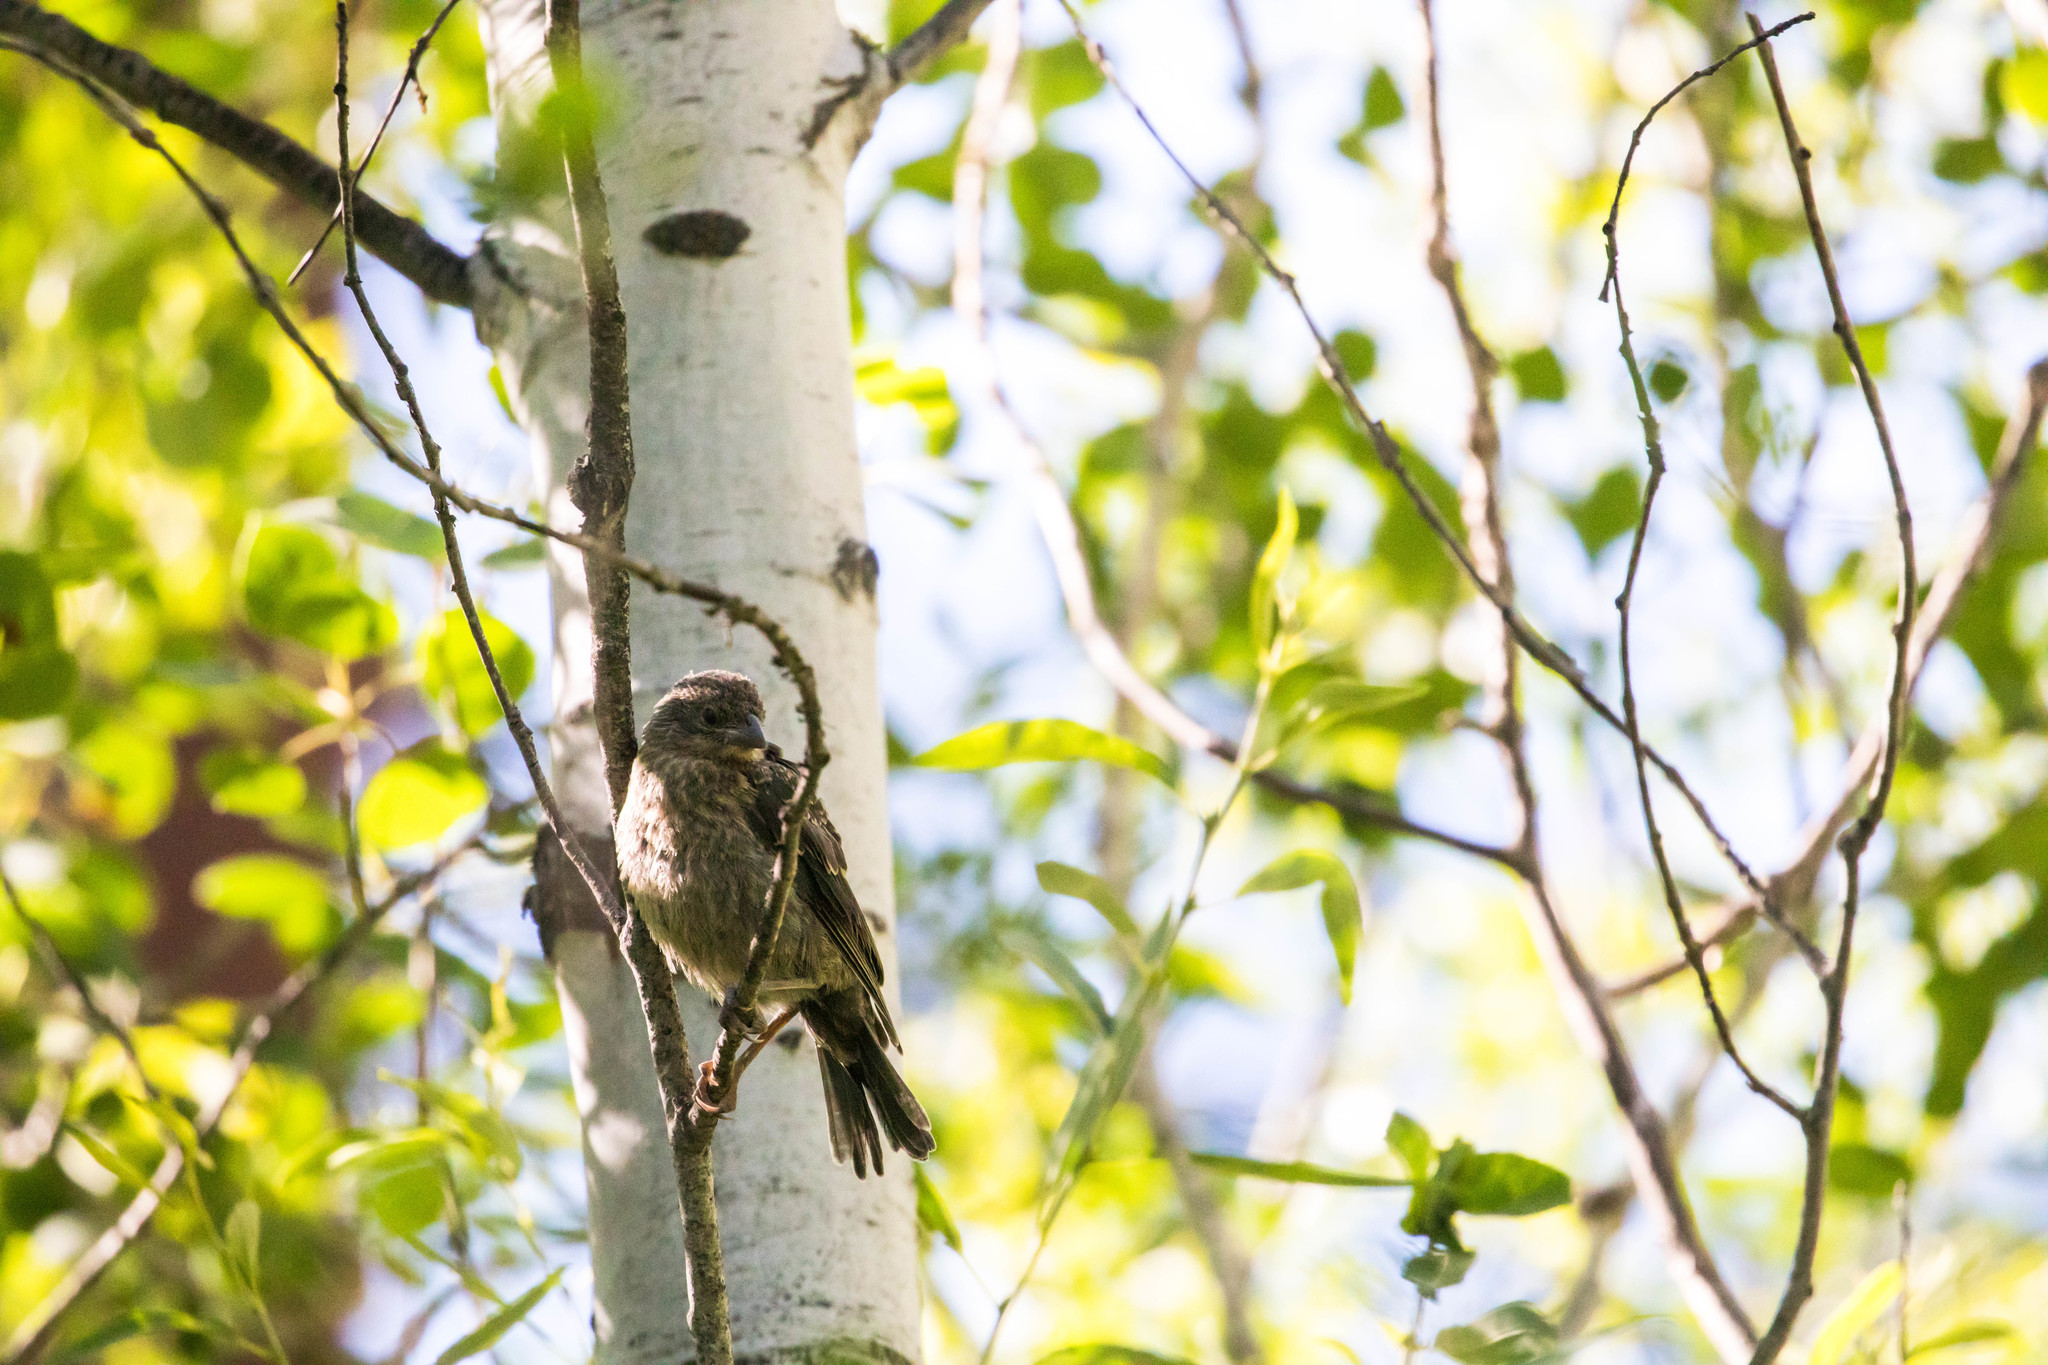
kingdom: Animalia
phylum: Chordata
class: Aves
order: Passeriformes
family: Icteridae
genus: Molothrus
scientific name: Molothrus ater
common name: Brown-headed cowbird
